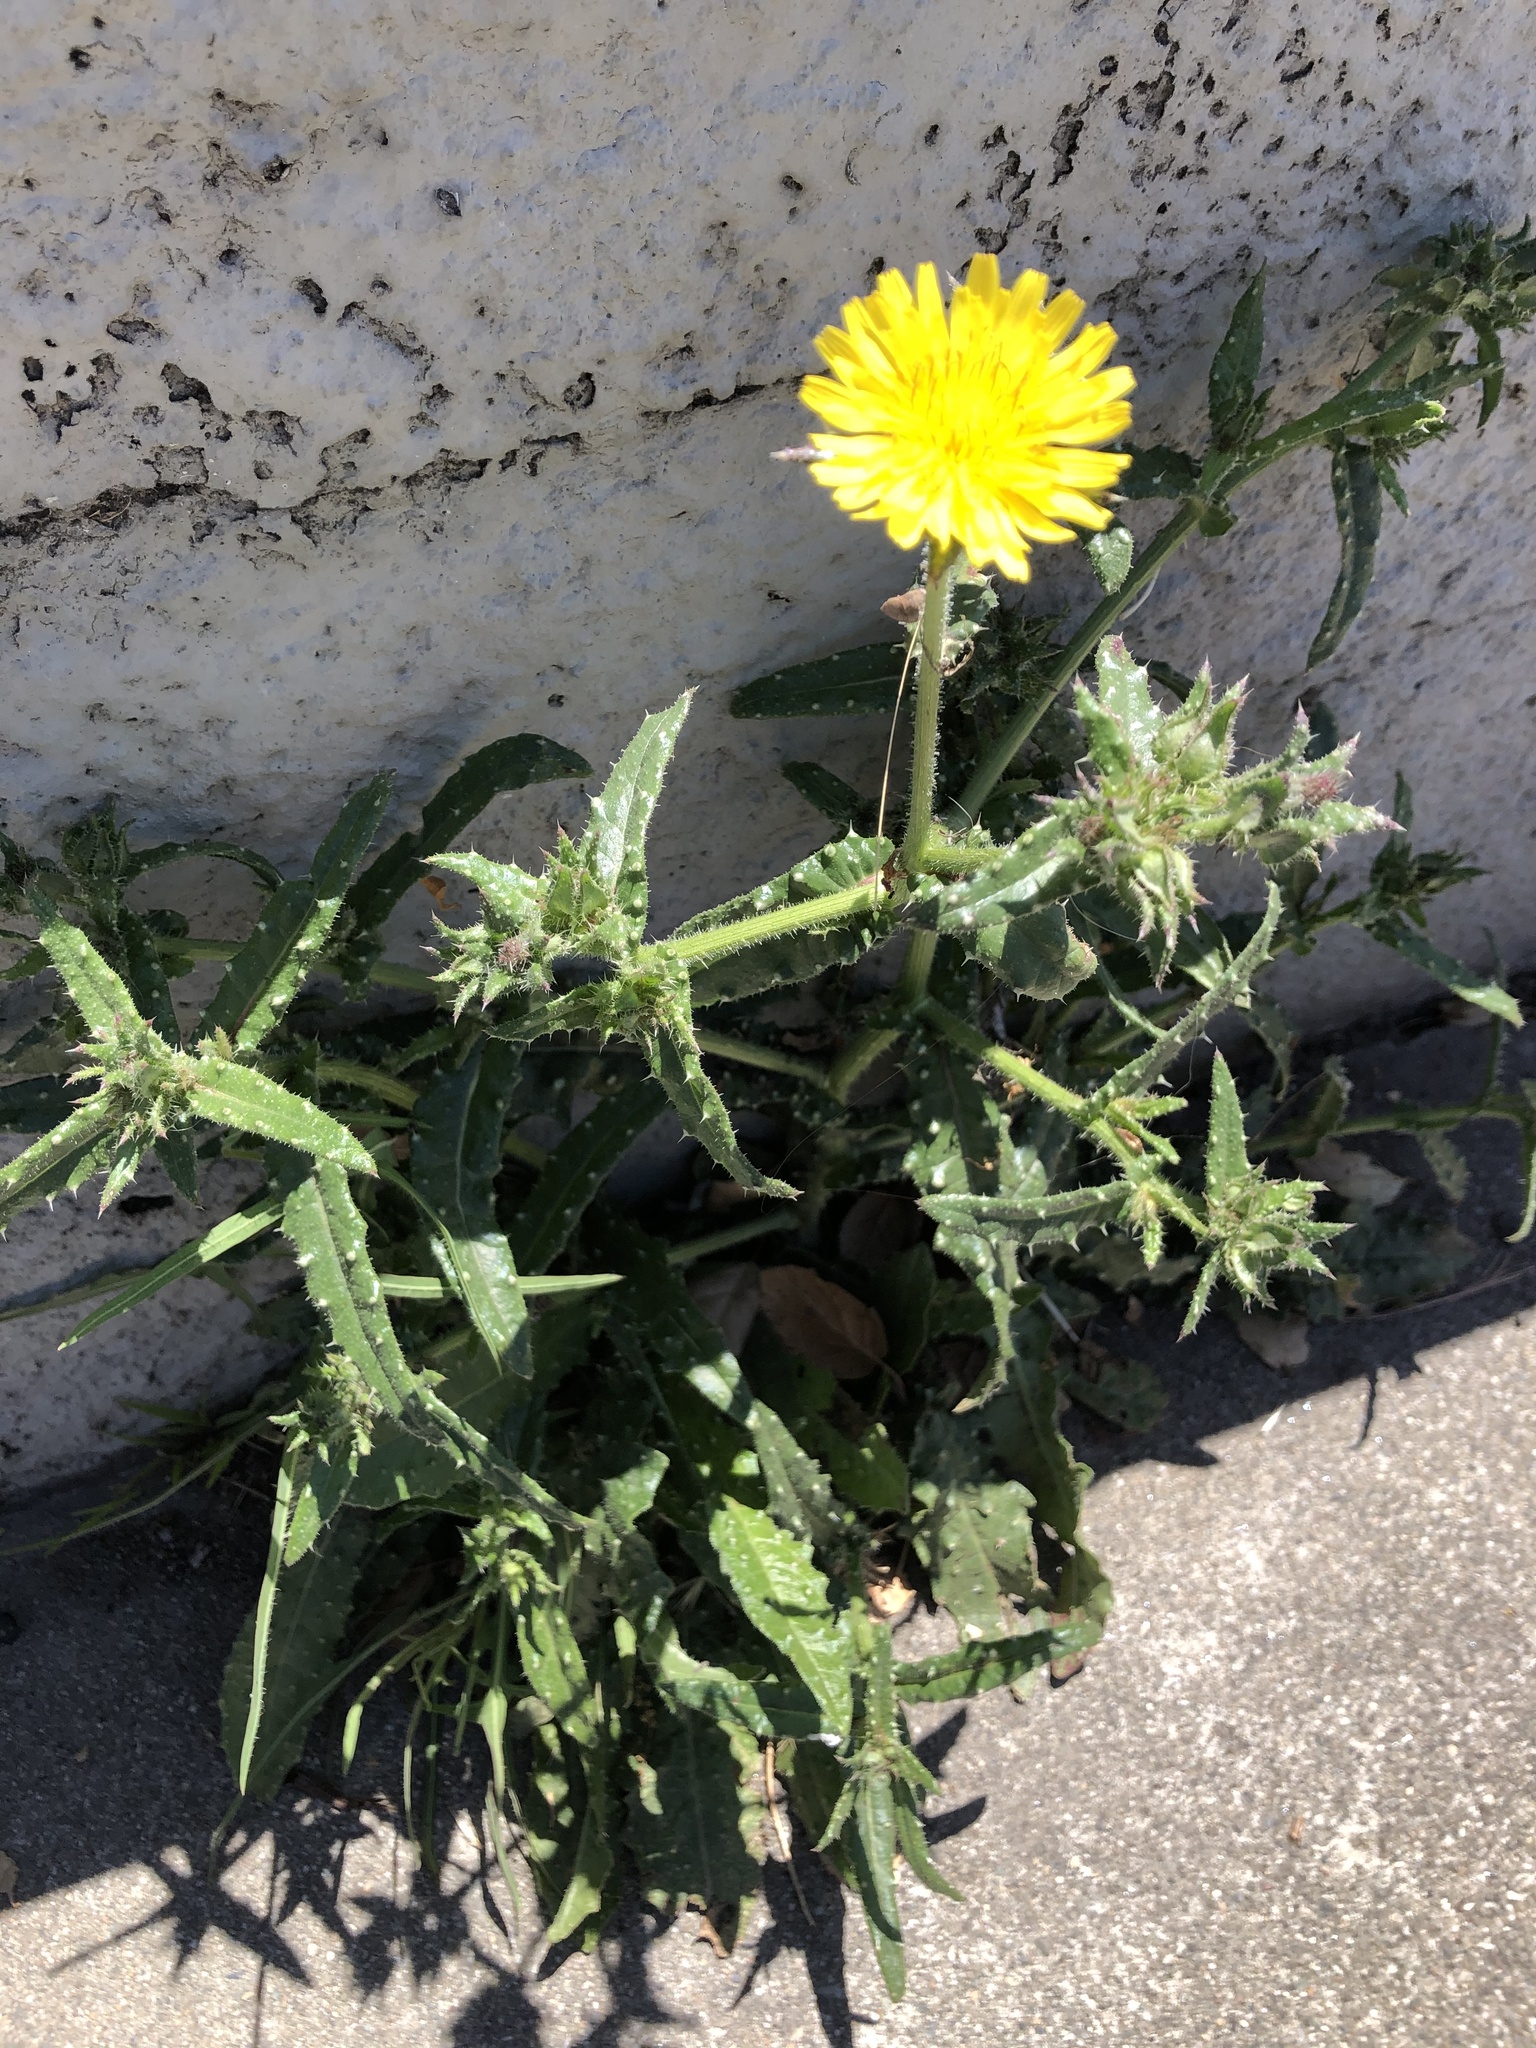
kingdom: Plantae
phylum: Tracheophyta
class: Magnoliopsida
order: Asterales
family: Asteraceae
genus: Helminthotheca
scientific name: Helminthotheca echioides
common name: Ox-tongue
